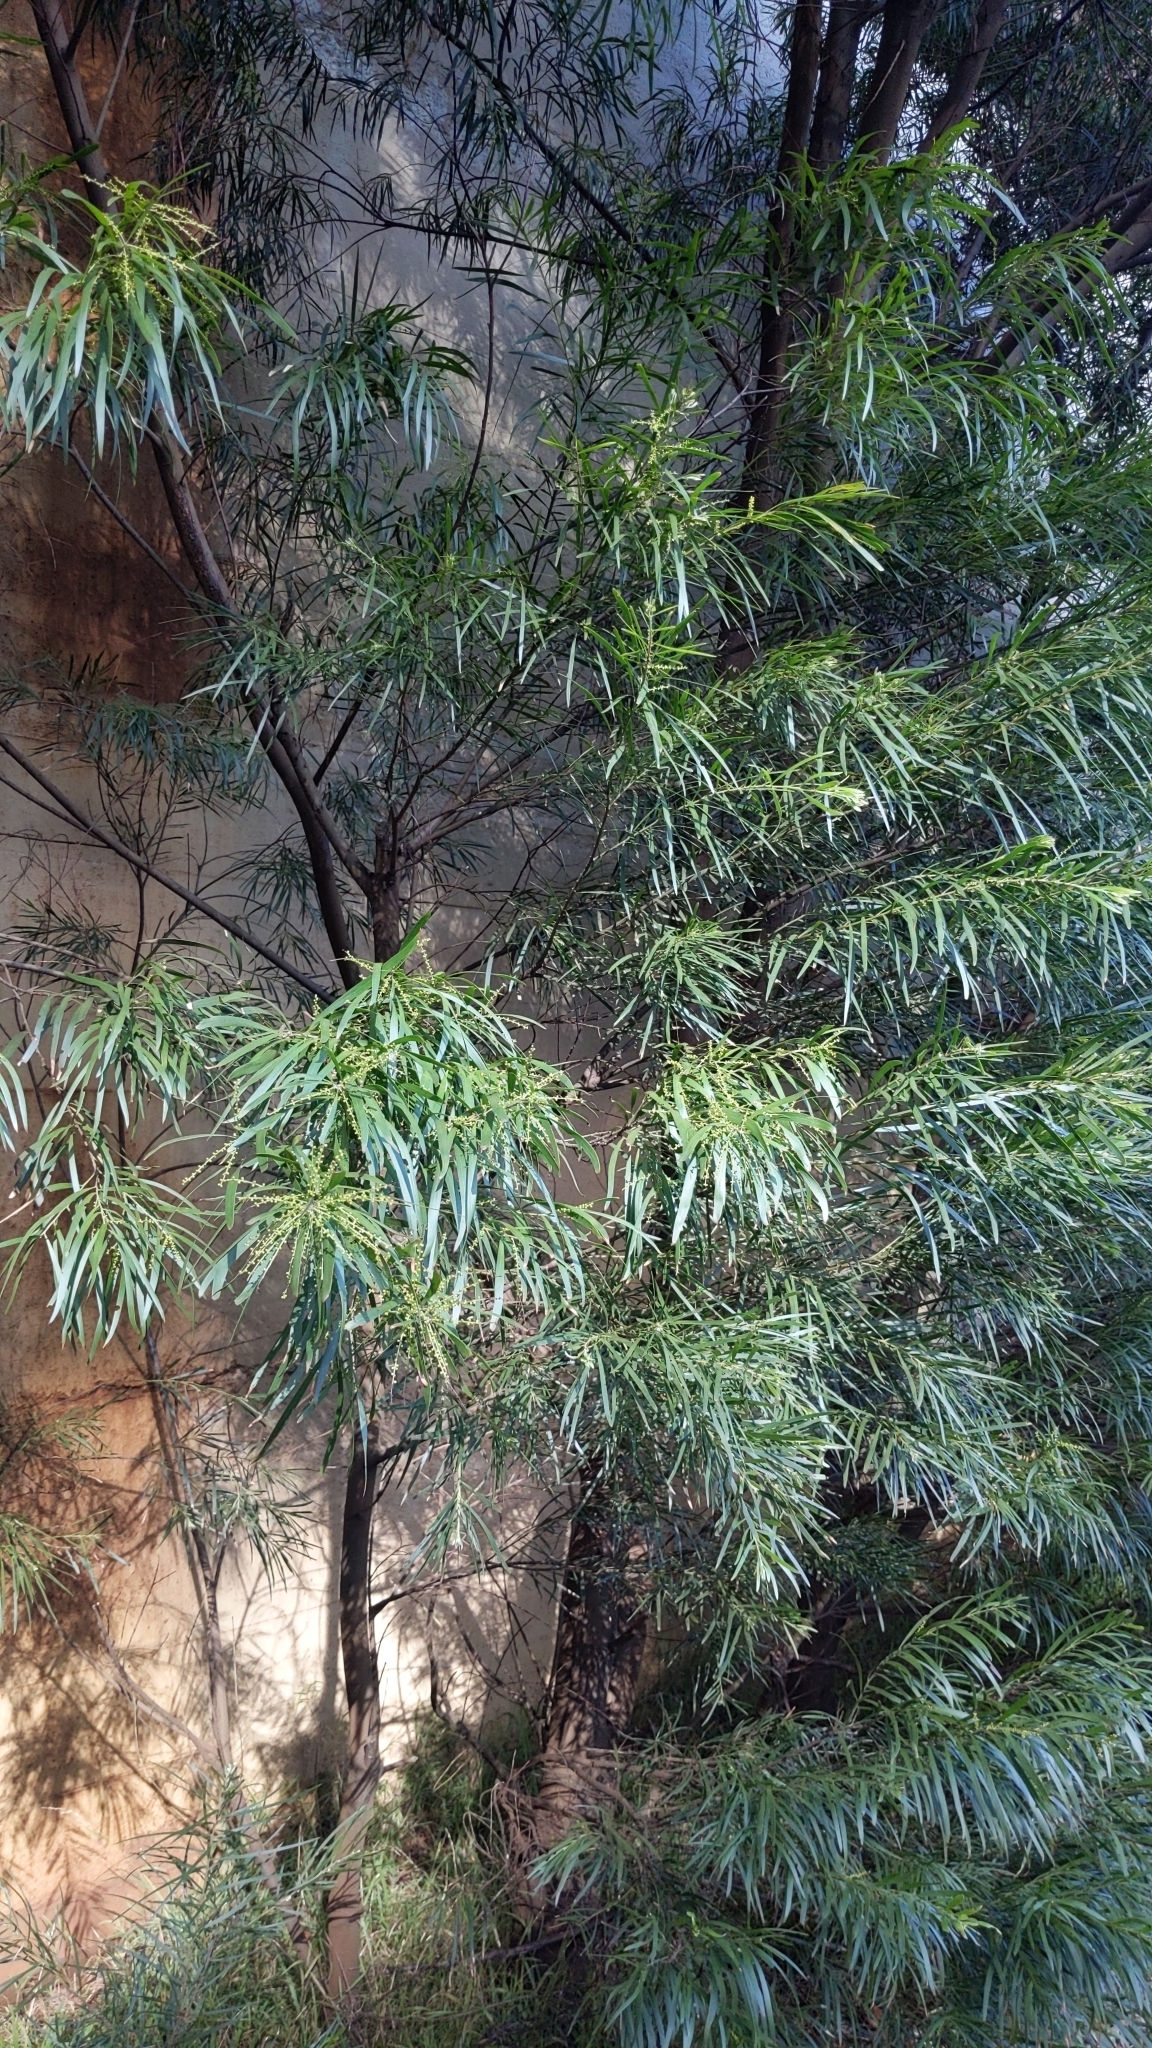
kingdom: Plantae
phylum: Tracheophyta
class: Magnoliopsida
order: Fabales
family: Fabaceae
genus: Acacia
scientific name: Acacia floribunda
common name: Gossamer wattle
